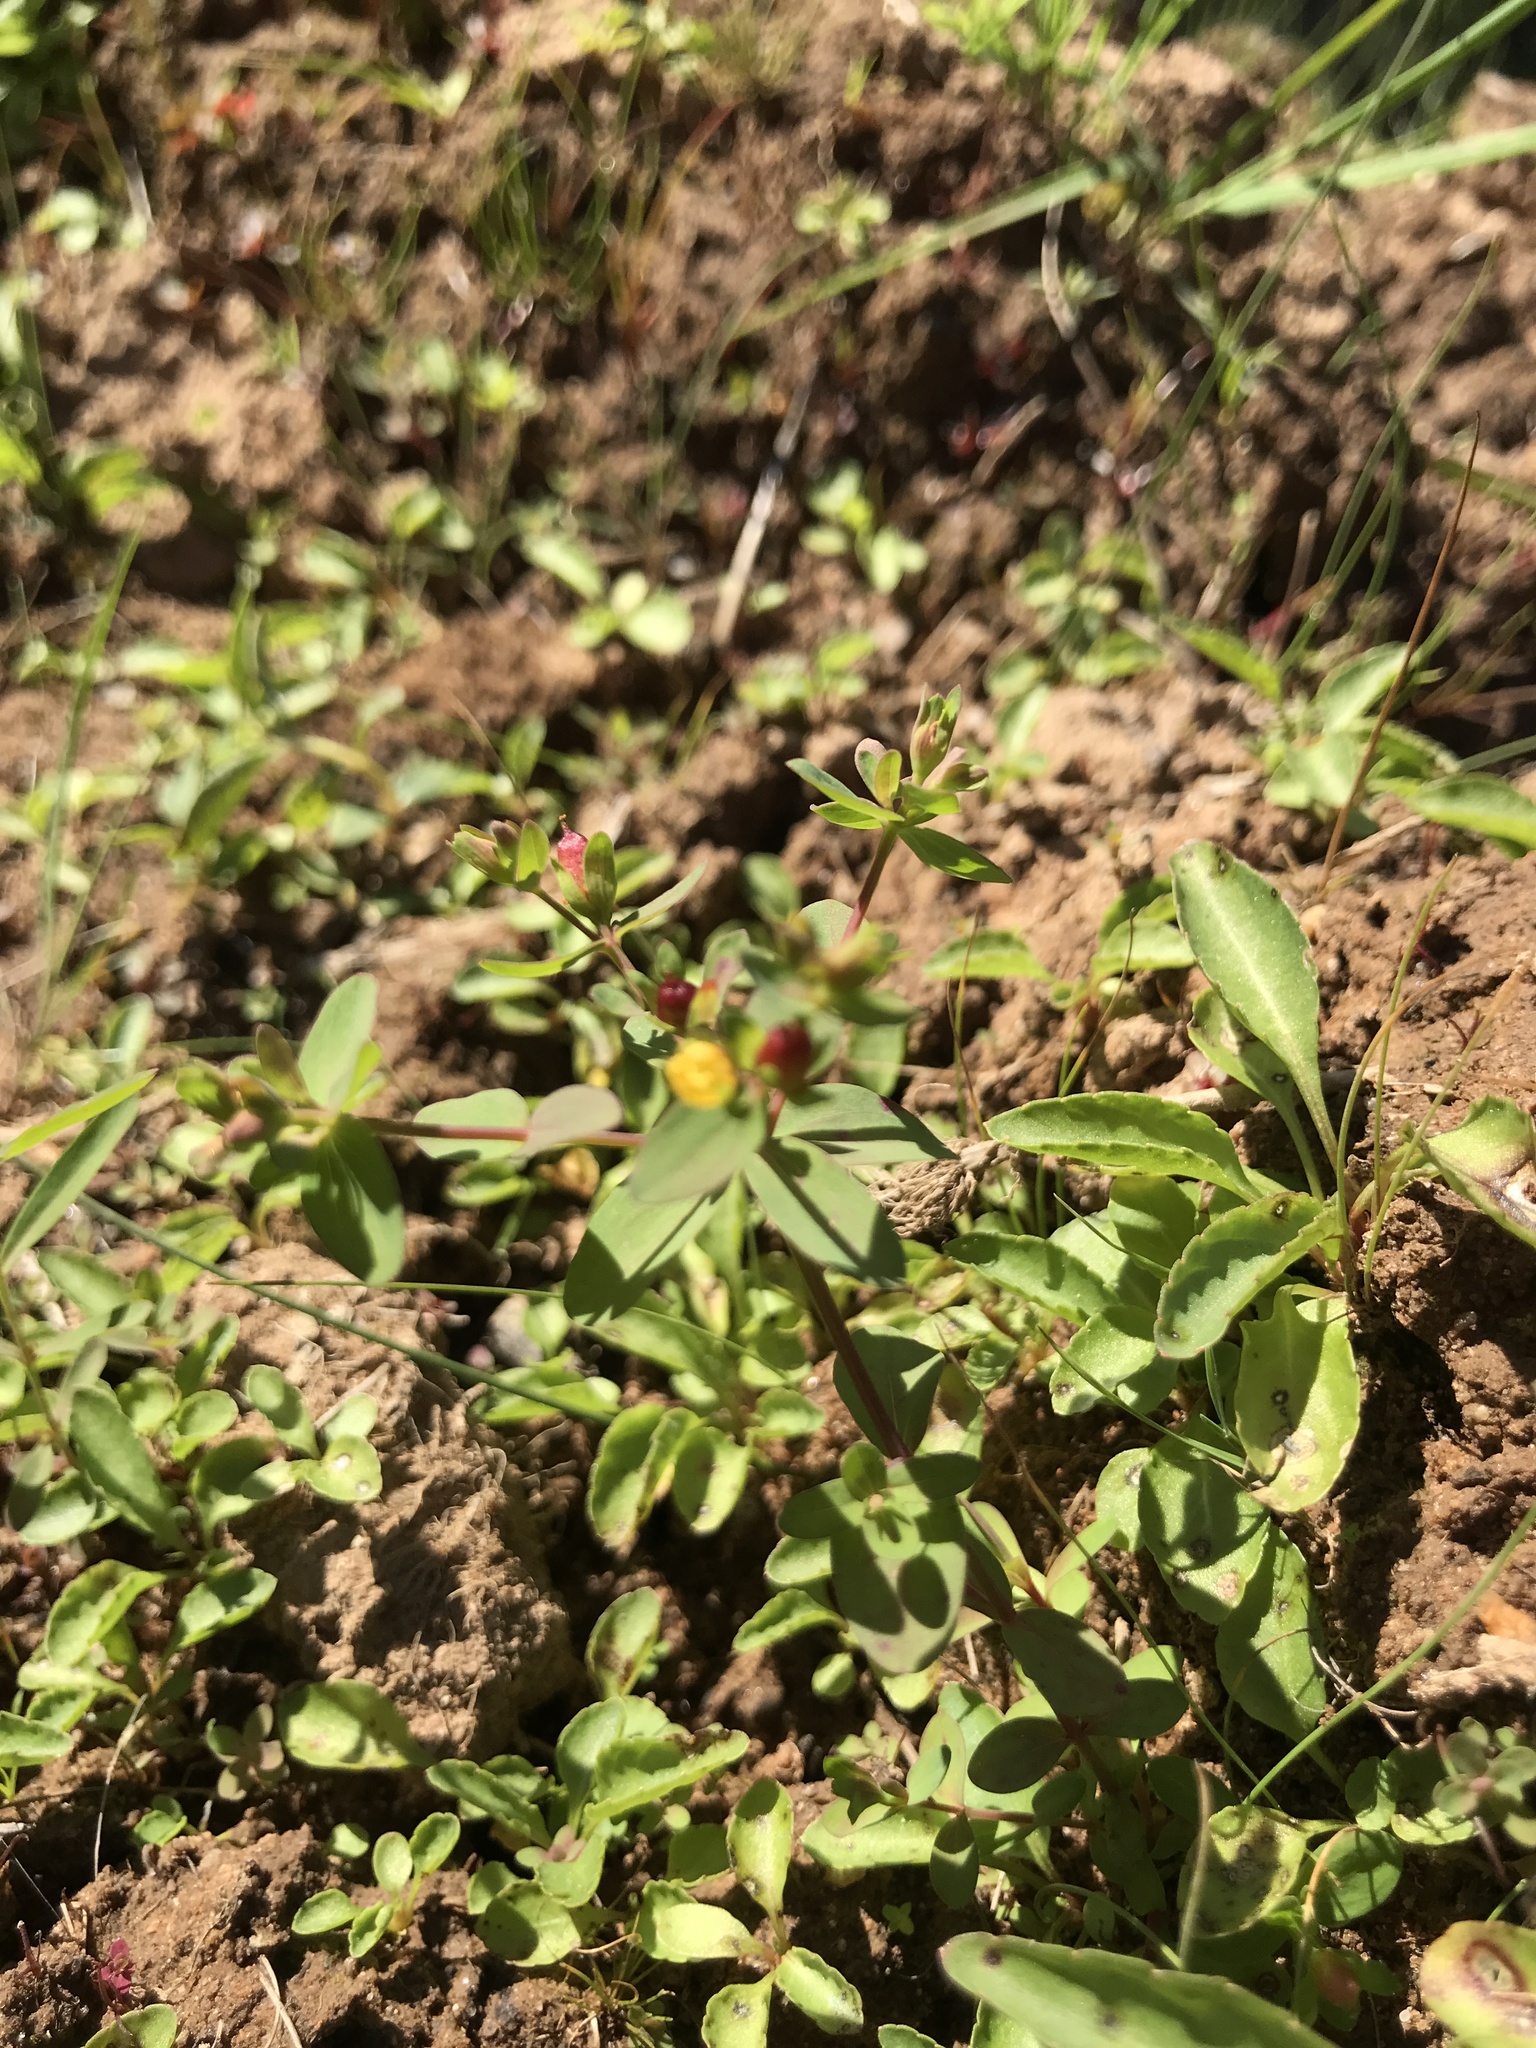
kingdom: Plantae
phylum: Tracheophyta
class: Magnoliopsida
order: Malpighiales
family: Hypericaceae
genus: Hypericum
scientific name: Hypericum boreale
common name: Northern bog st. john's-wort
